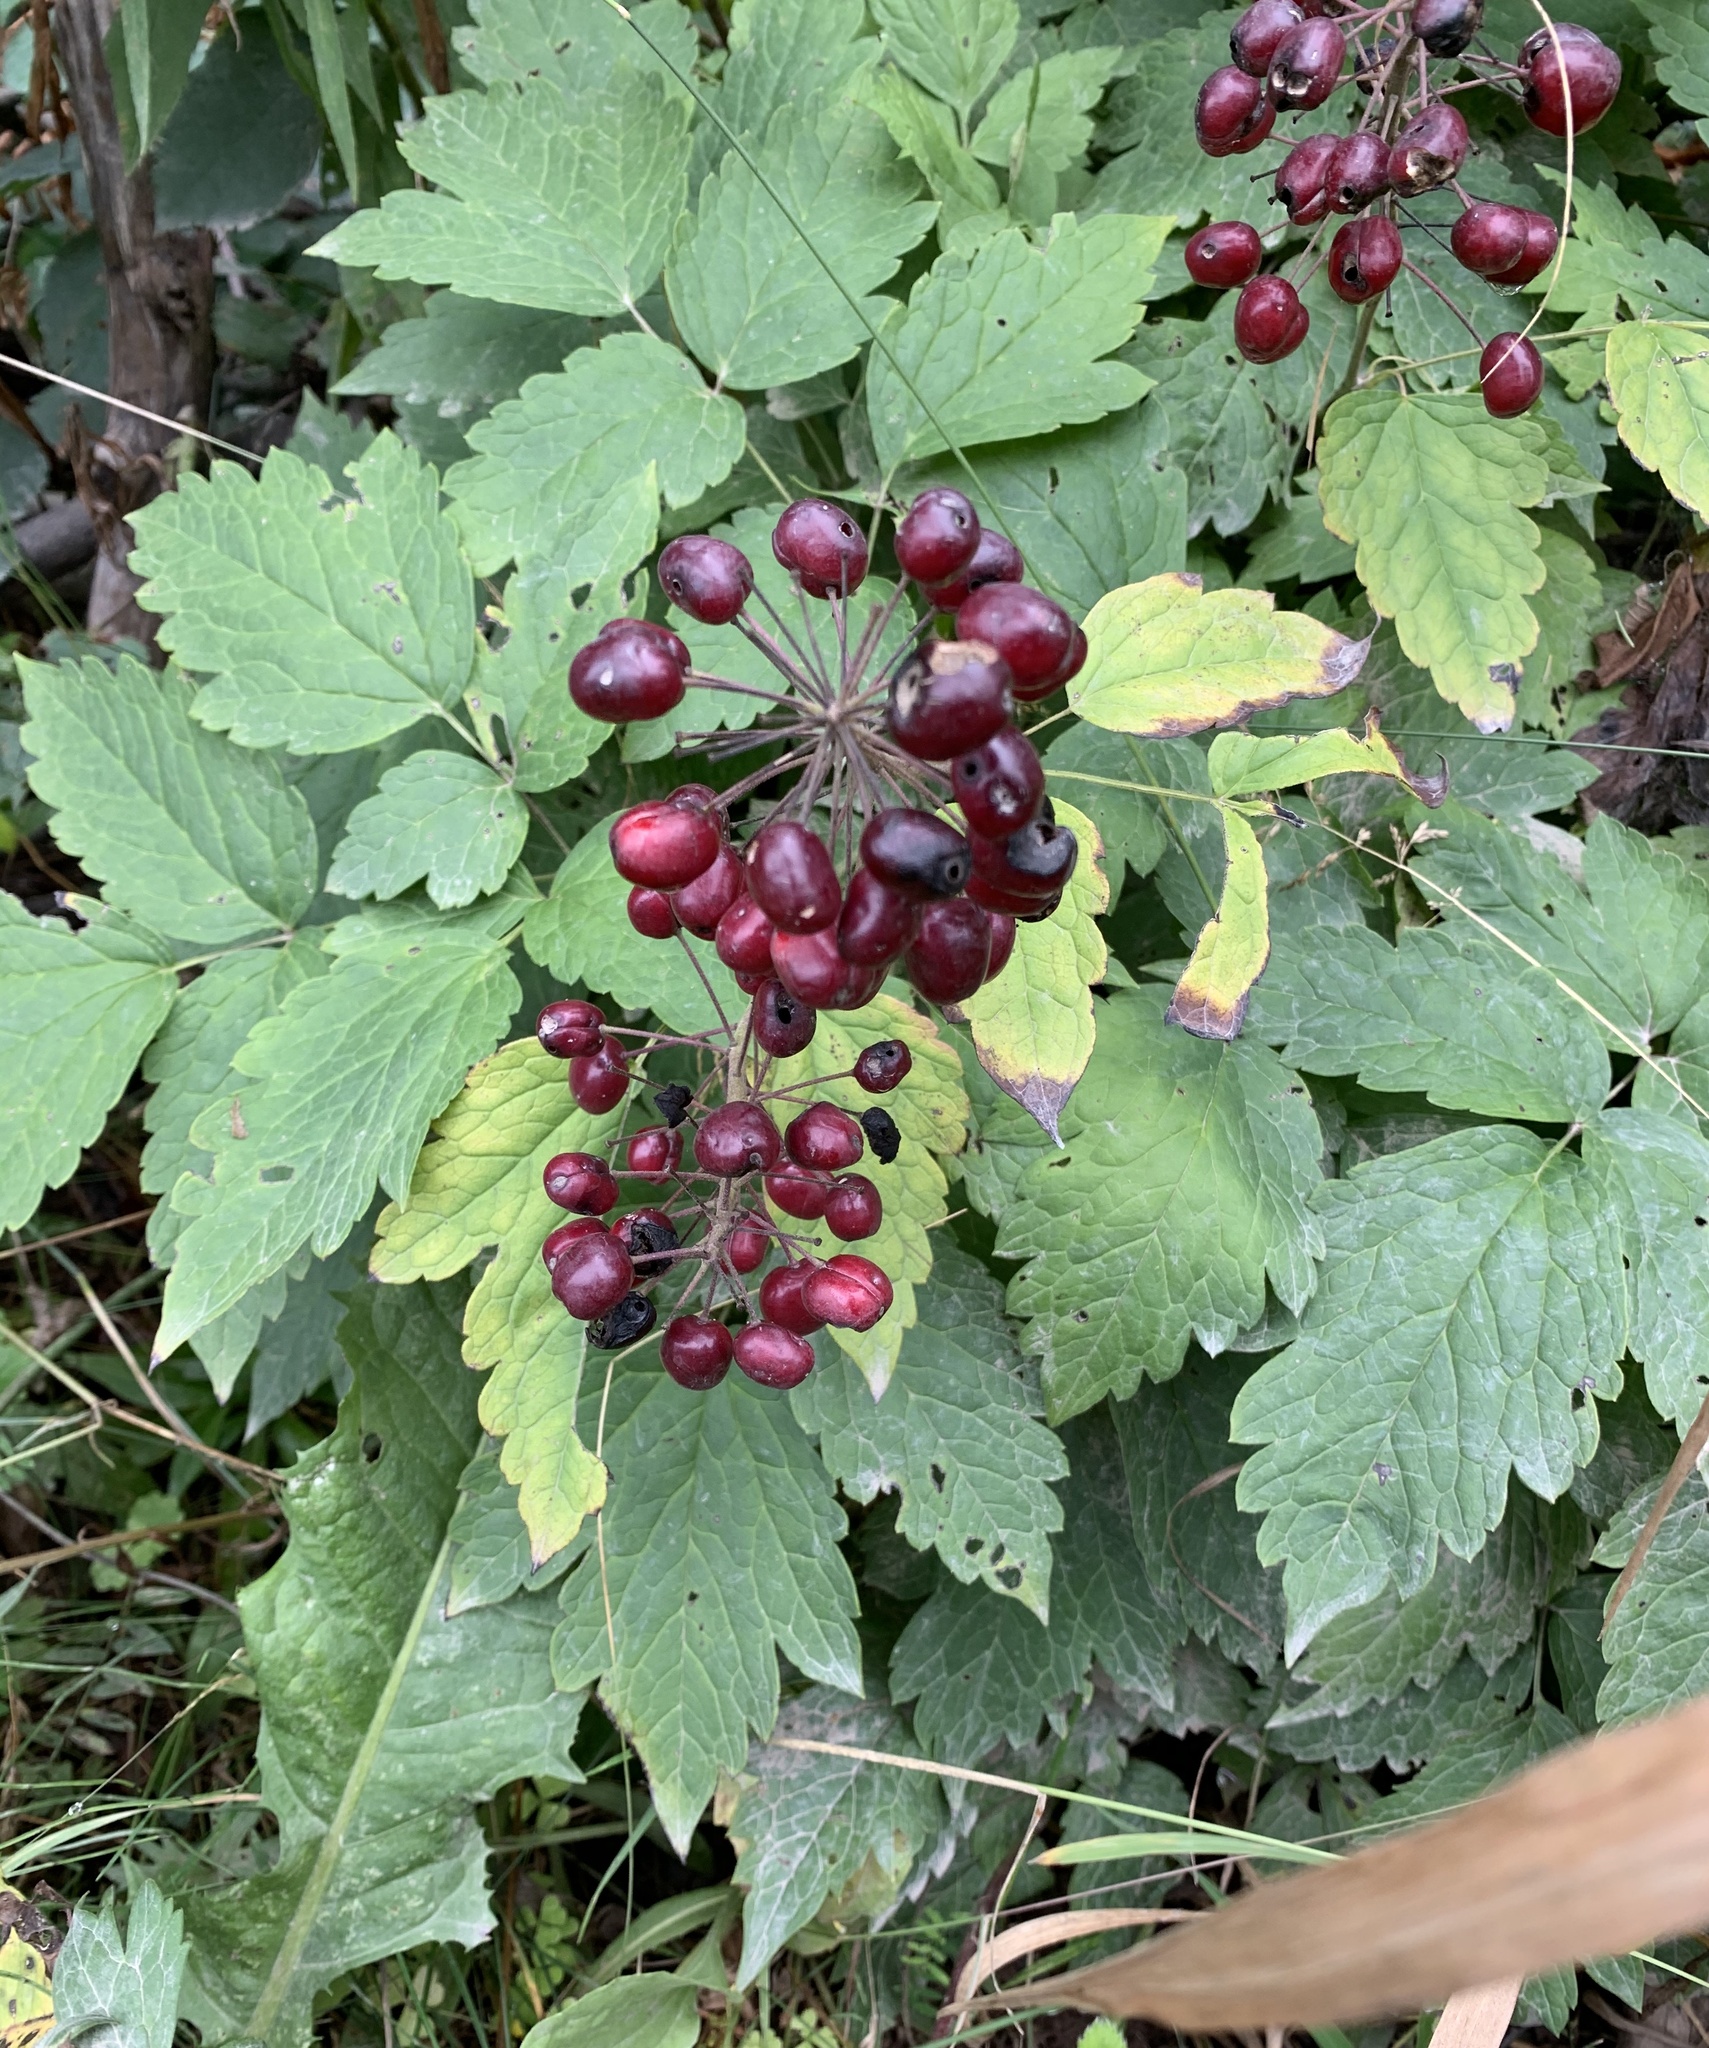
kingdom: Plantae
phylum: Tracheophyta
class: Magnoliopsida
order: Ranunculales
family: Ranunculaceae
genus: Actaea
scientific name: Actaea rubra
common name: Red baneberry
